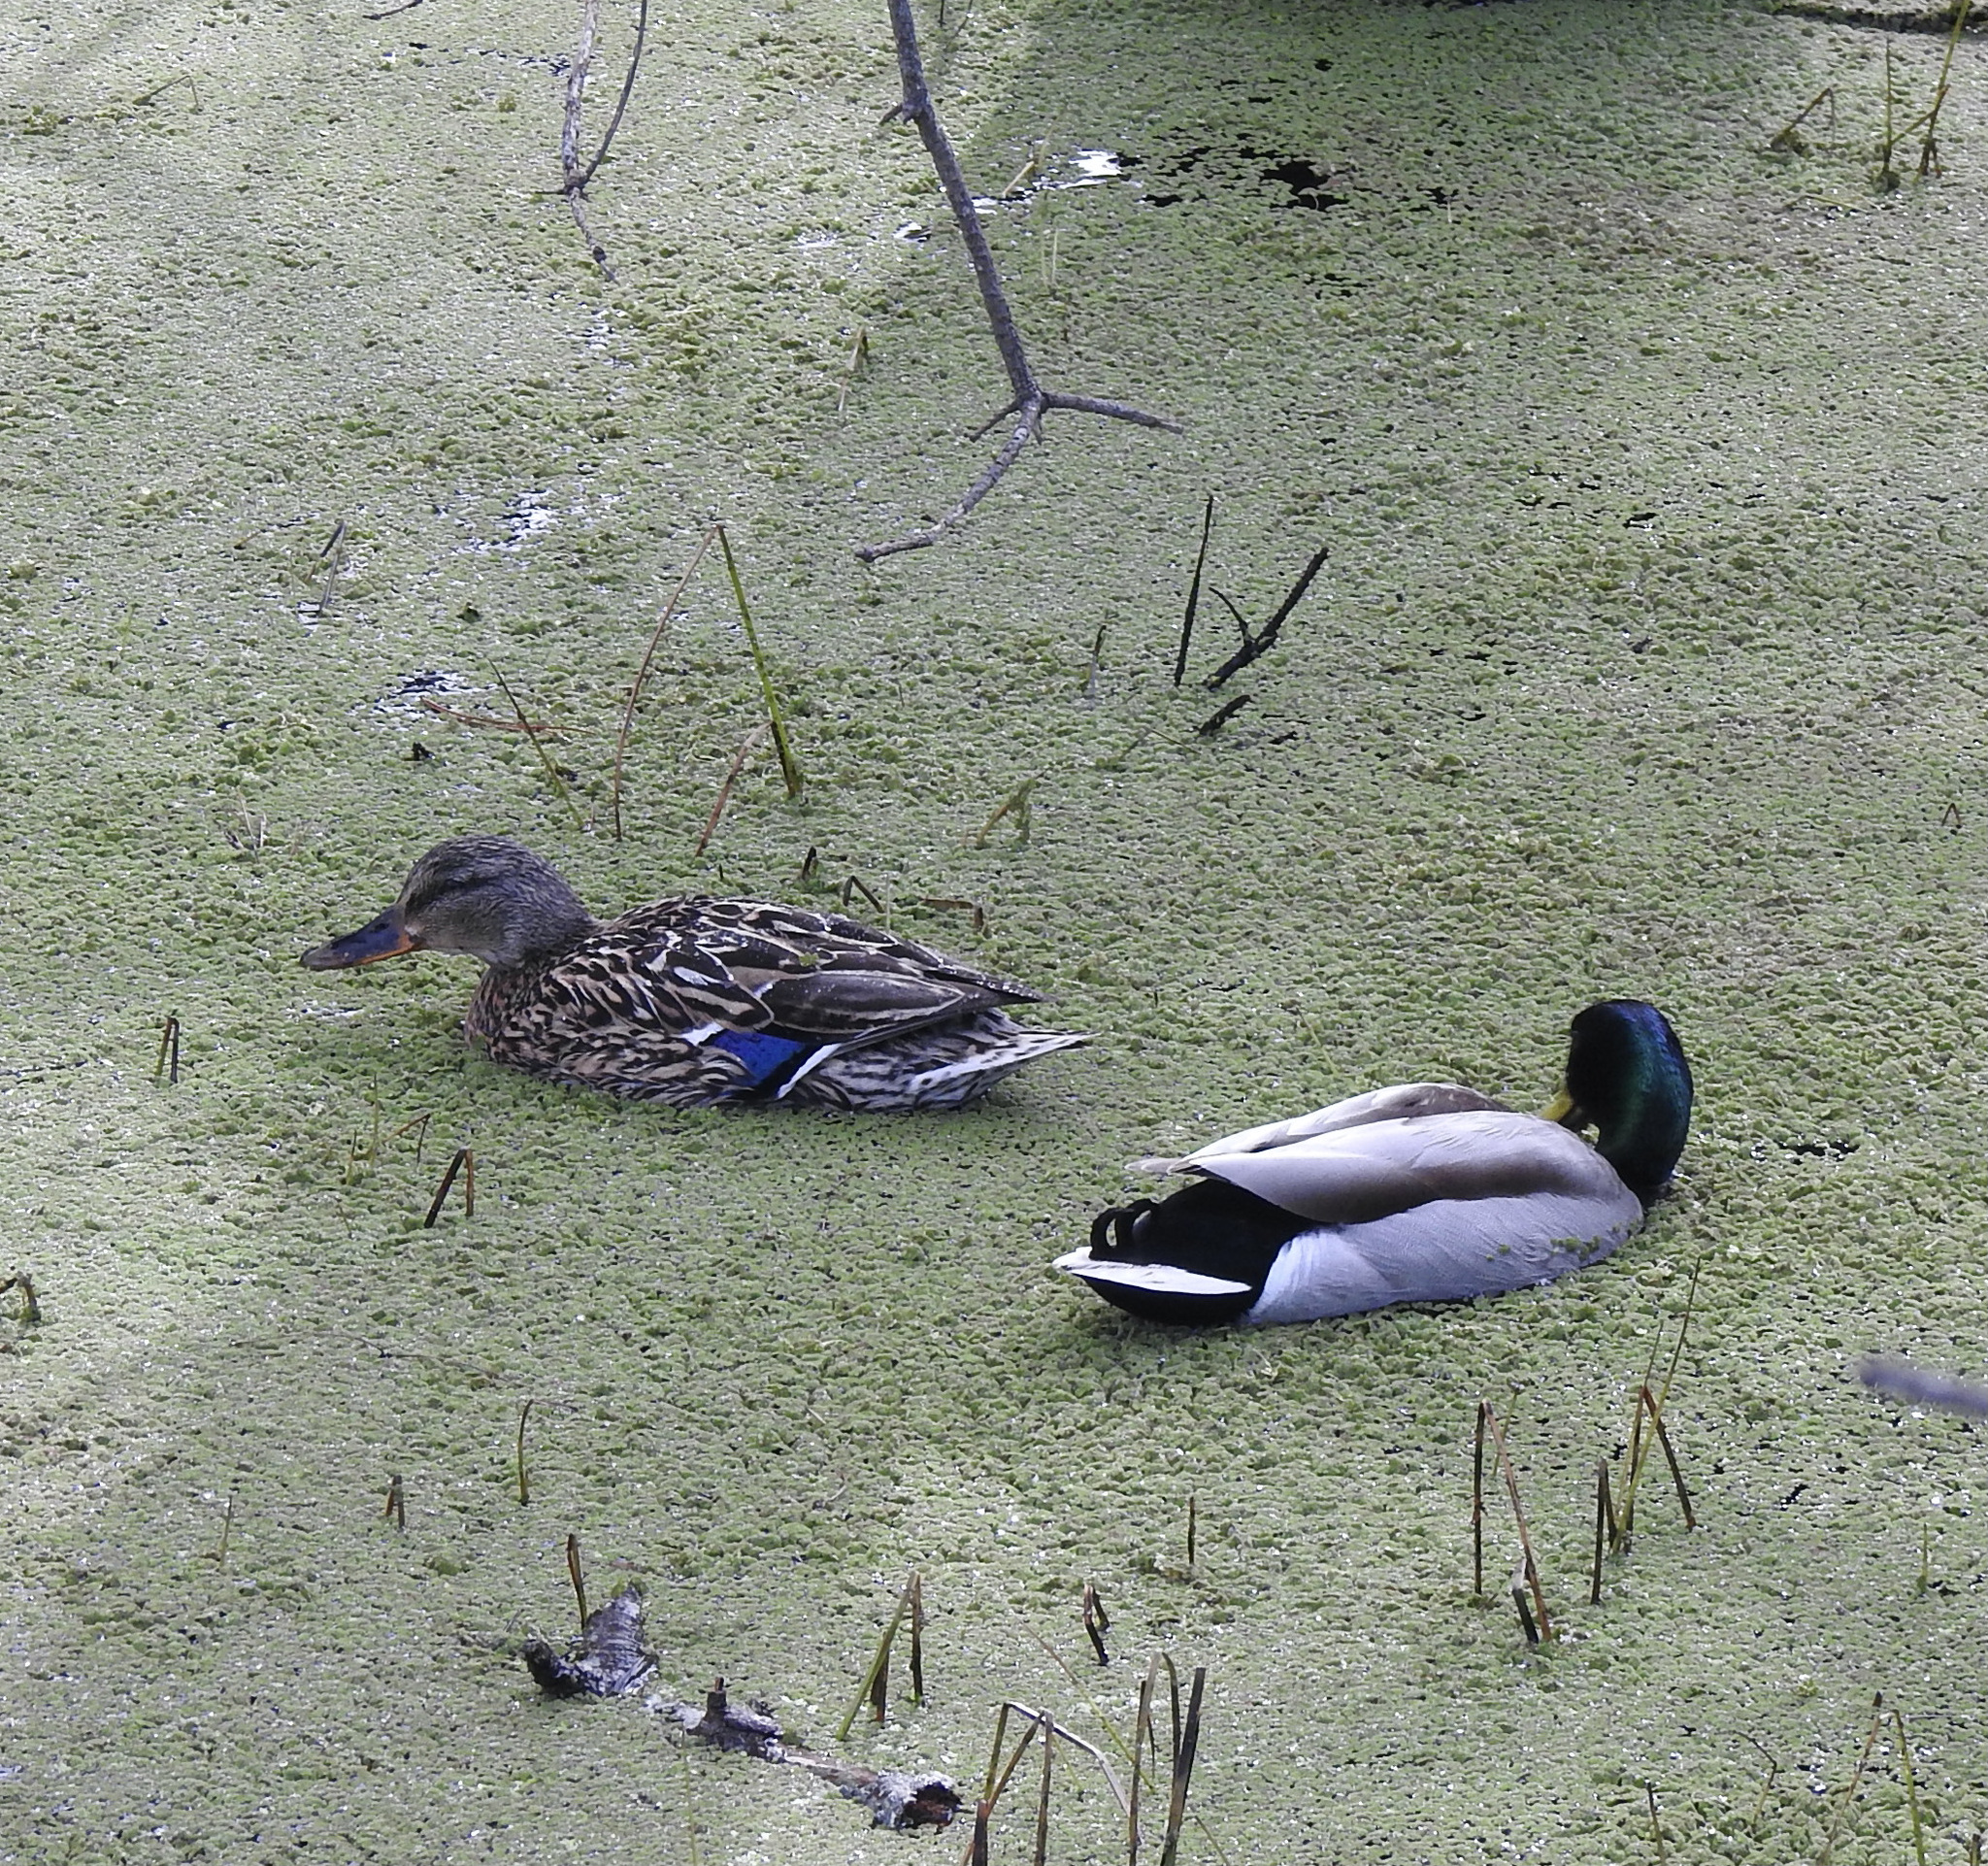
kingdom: Animalia
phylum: Chordata
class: Aves
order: Anseriformes
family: Anatidae
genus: Anas
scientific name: Anas platyrhynchos
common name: Mallard
